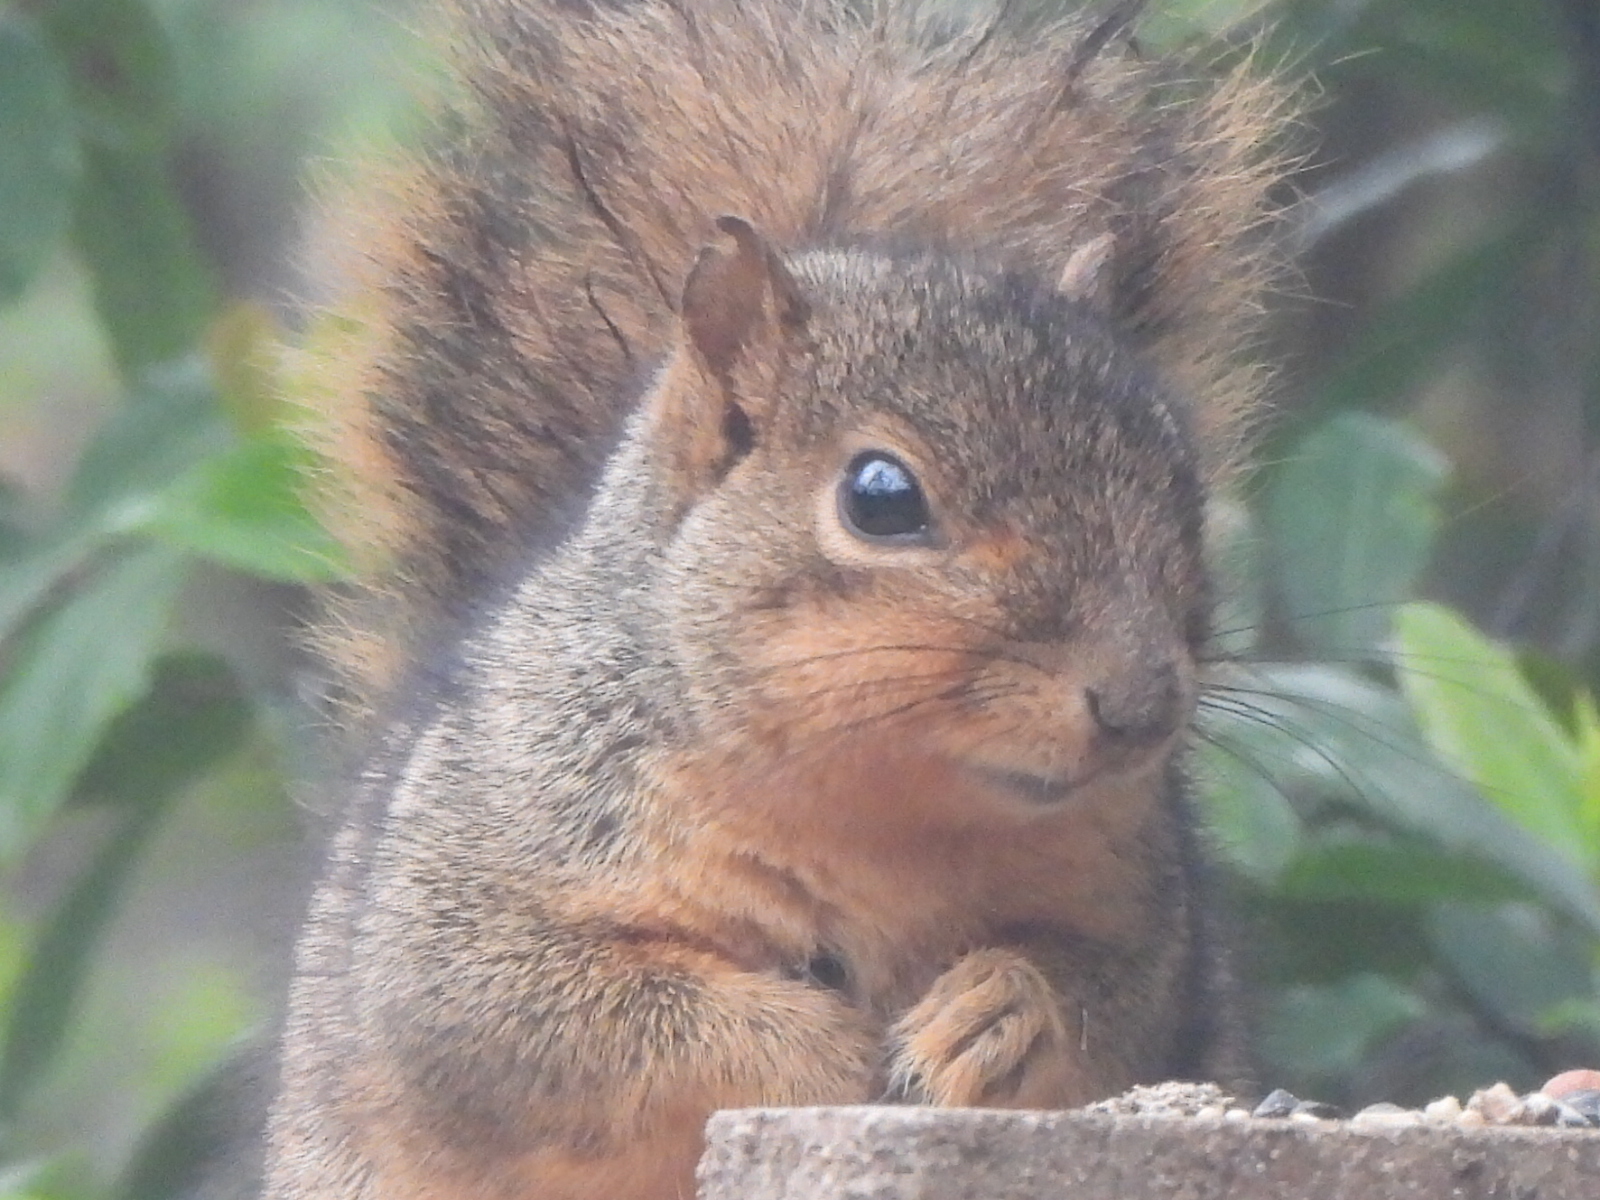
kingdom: Animalia
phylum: Chordata
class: Mammalia
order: Rodentia
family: Sciuridae
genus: Sciurus
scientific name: Sciurus niger
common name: Fox squirrel
